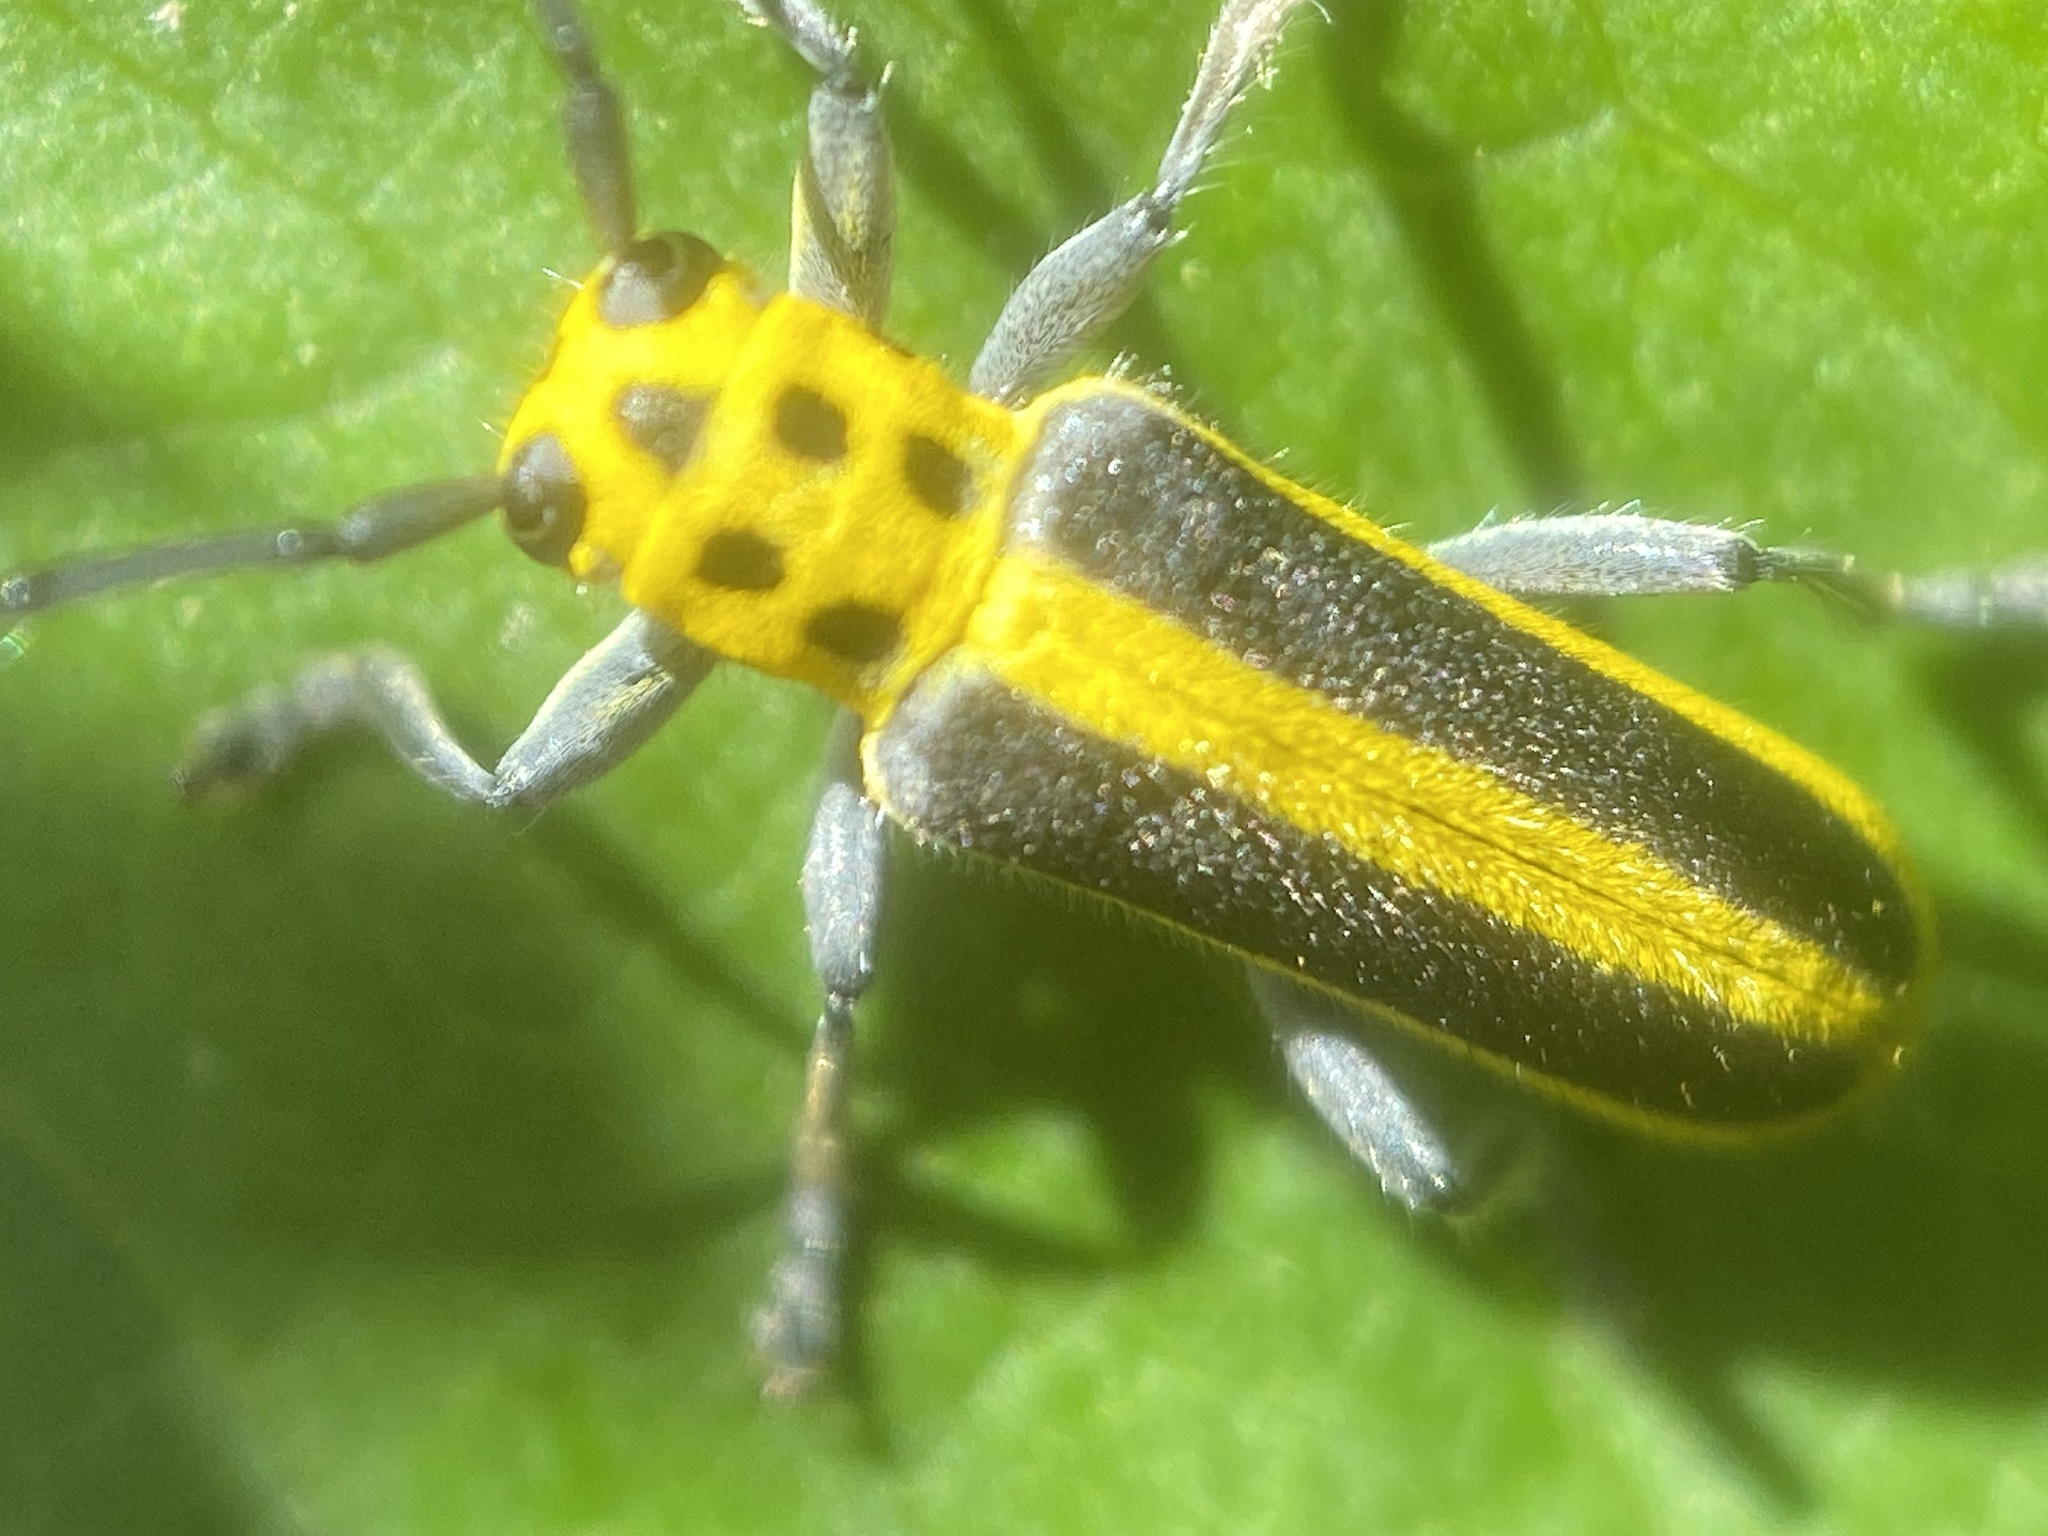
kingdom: Animalia
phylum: Arthropoda
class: Insecta
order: Coleoptera
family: Cerambycidae
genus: Saperda
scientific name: Saperda puncticollis
